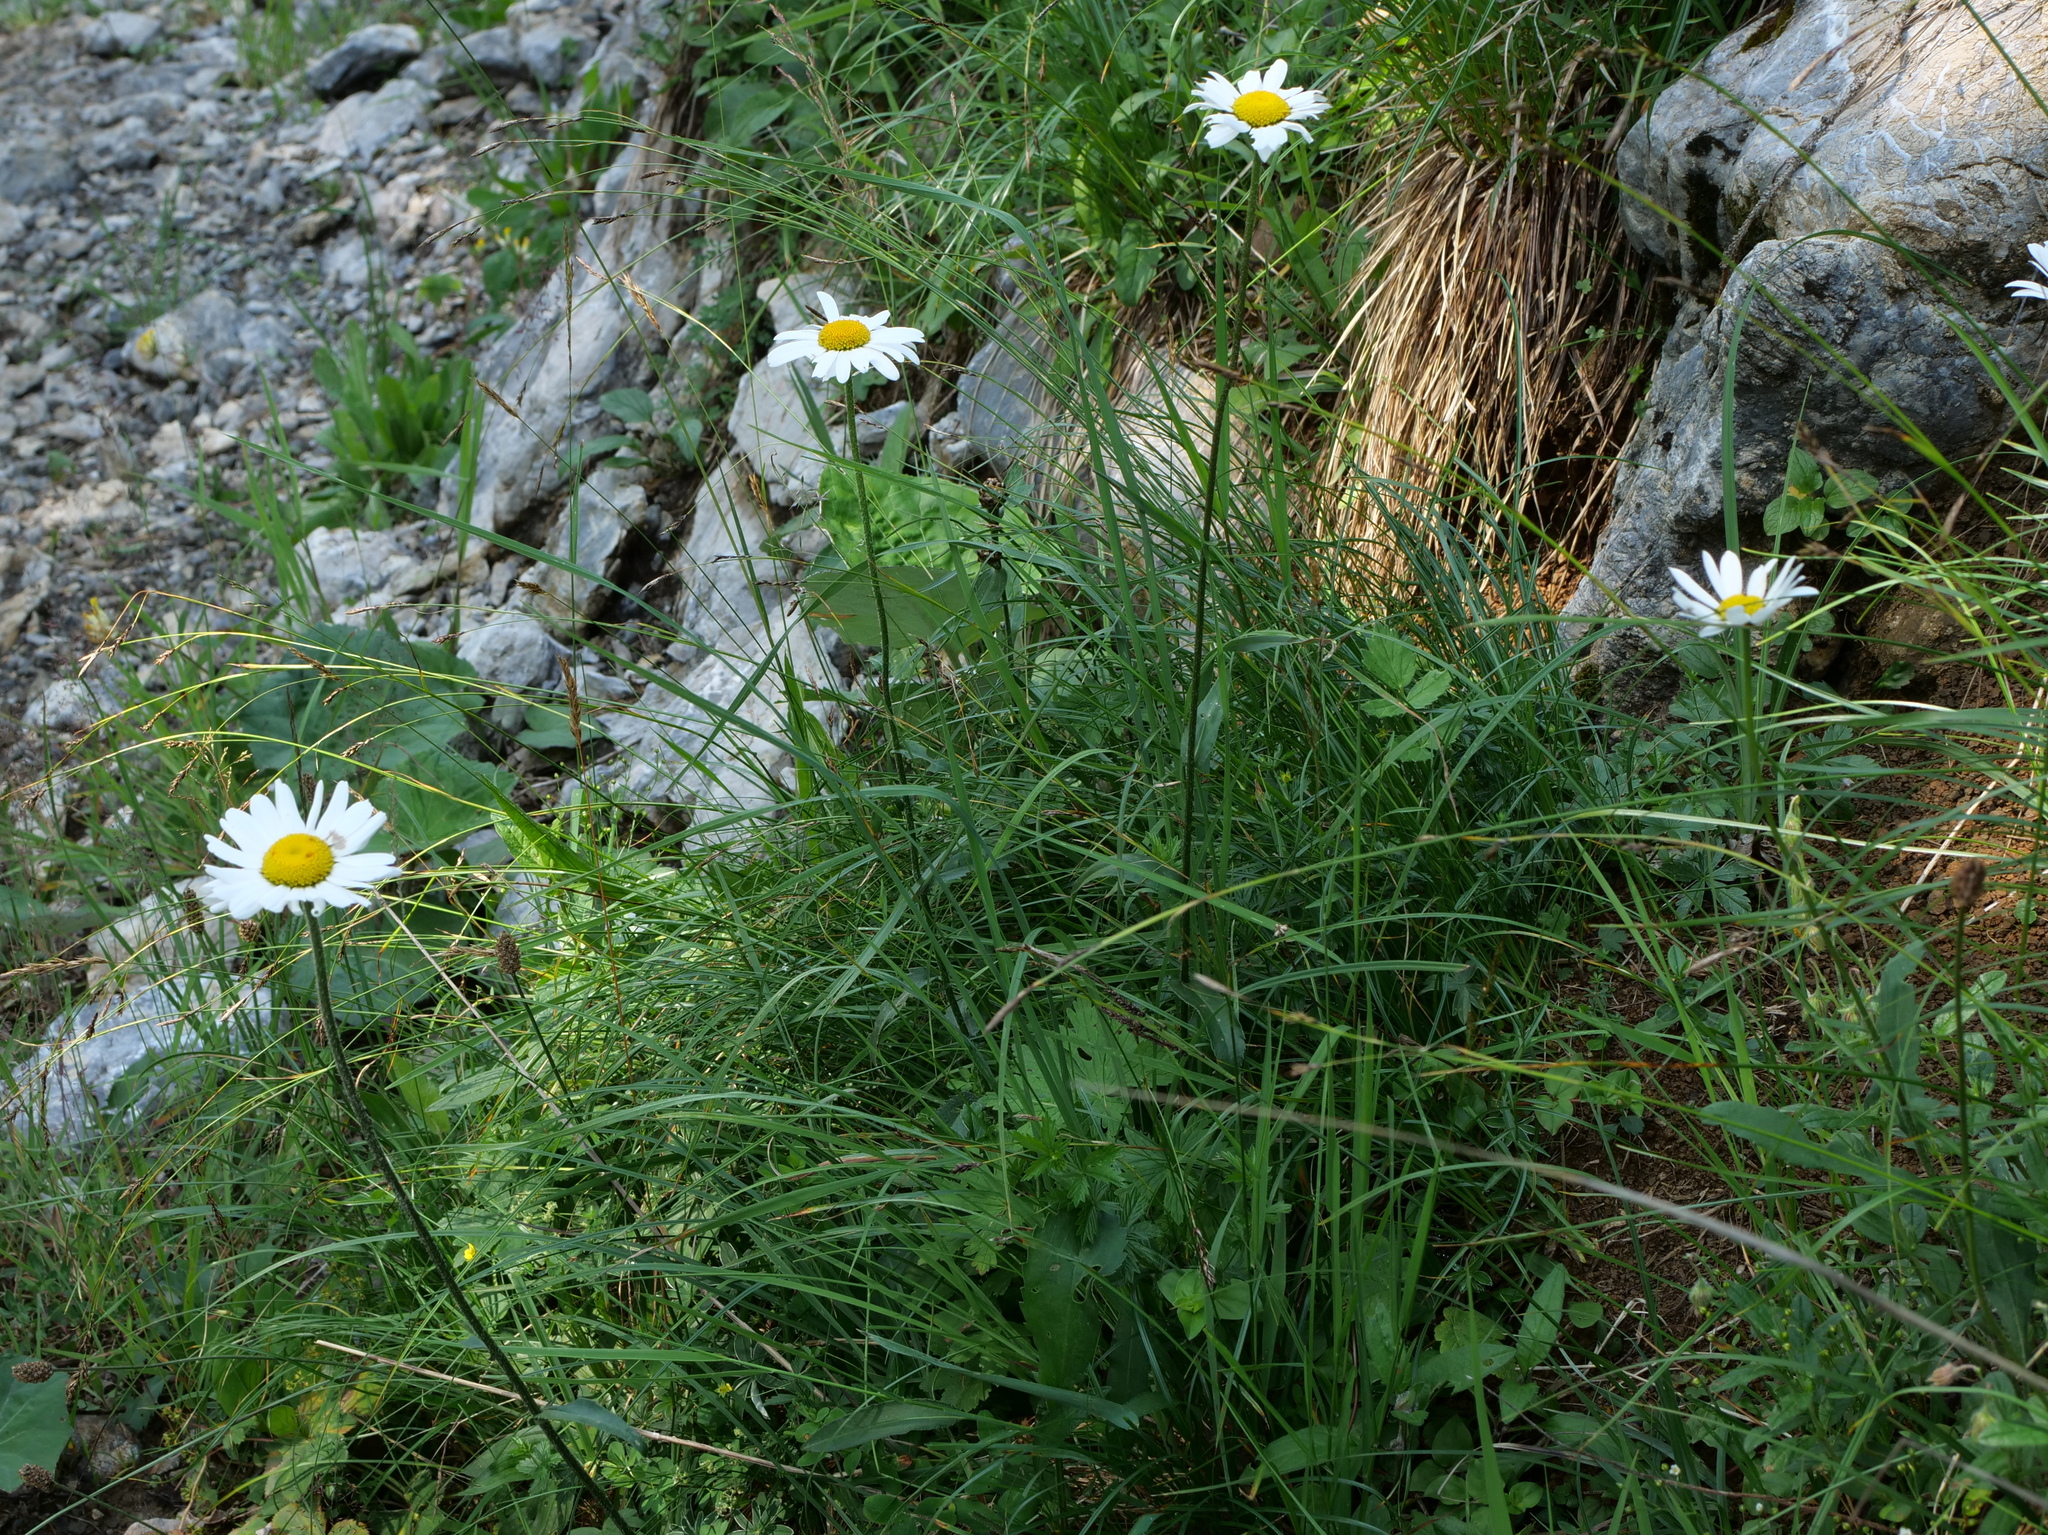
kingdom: Plantae
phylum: Tracheophyta
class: Magnoliopsida
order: Asterales
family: Asteraceae
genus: Leucanthemum
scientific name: Leucanthemum adustum
